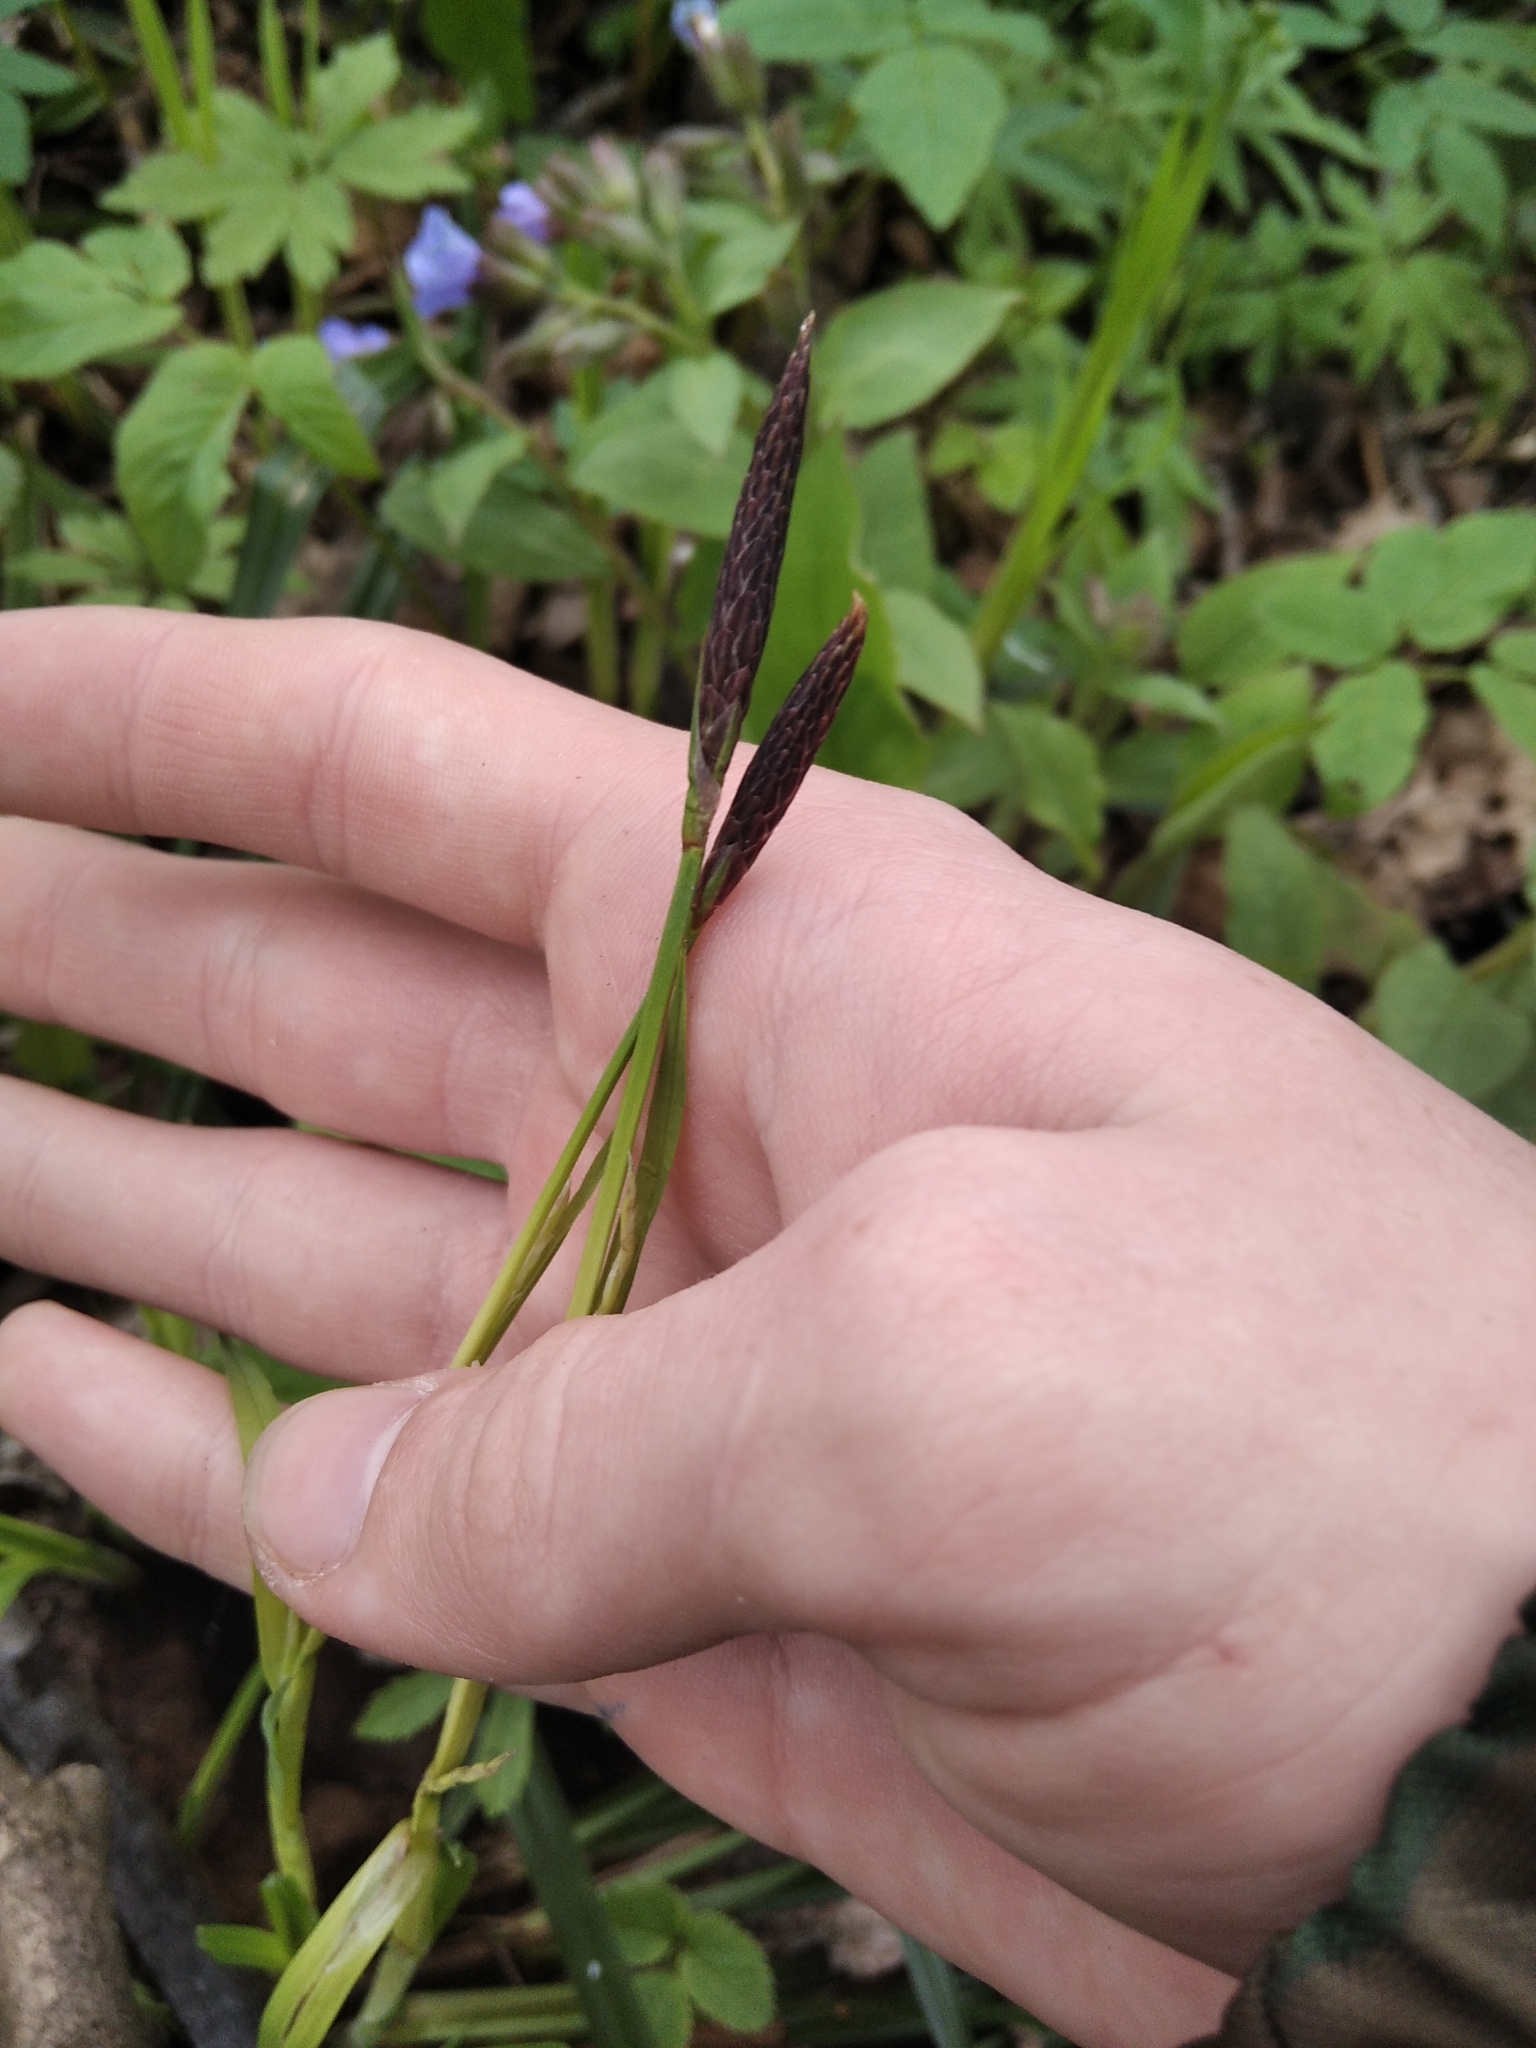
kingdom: Plantae
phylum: Tracheophyta
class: Liliopsida
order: Poales
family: Cyperaceae
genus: Carex
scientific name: Carex pilosa
